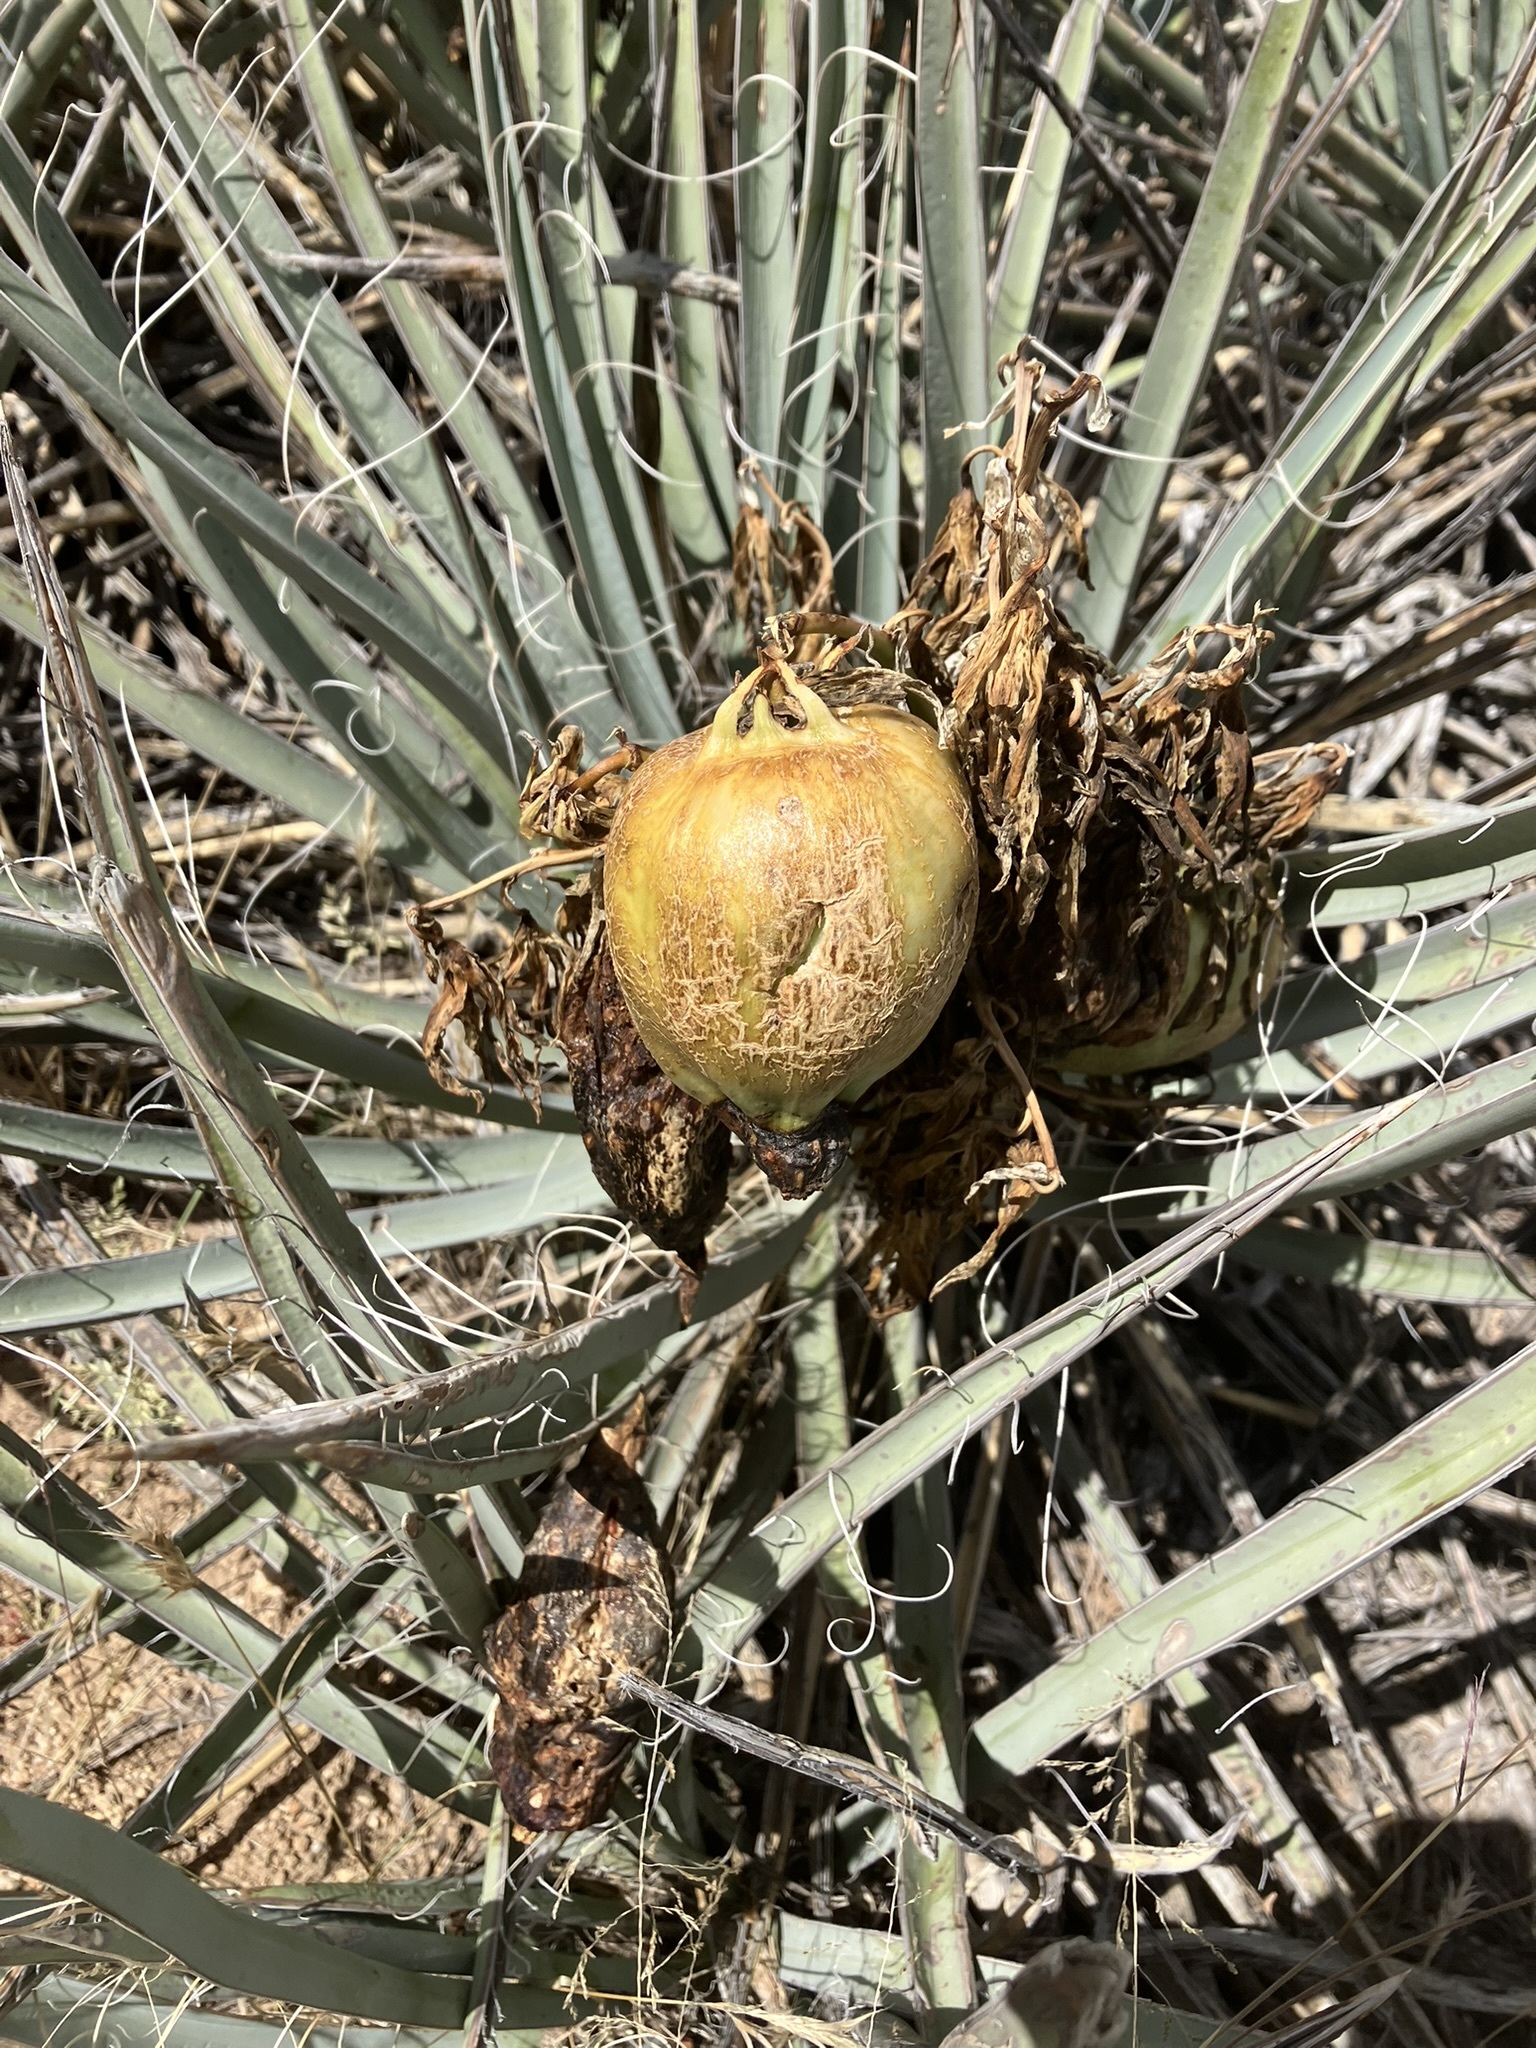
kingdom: Plantae
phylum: Tracheophyta
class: Liliopsida
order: Asparagales
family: Asparagaceae
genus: Yucca
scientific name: Yucca baccata
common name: Banana yucca
